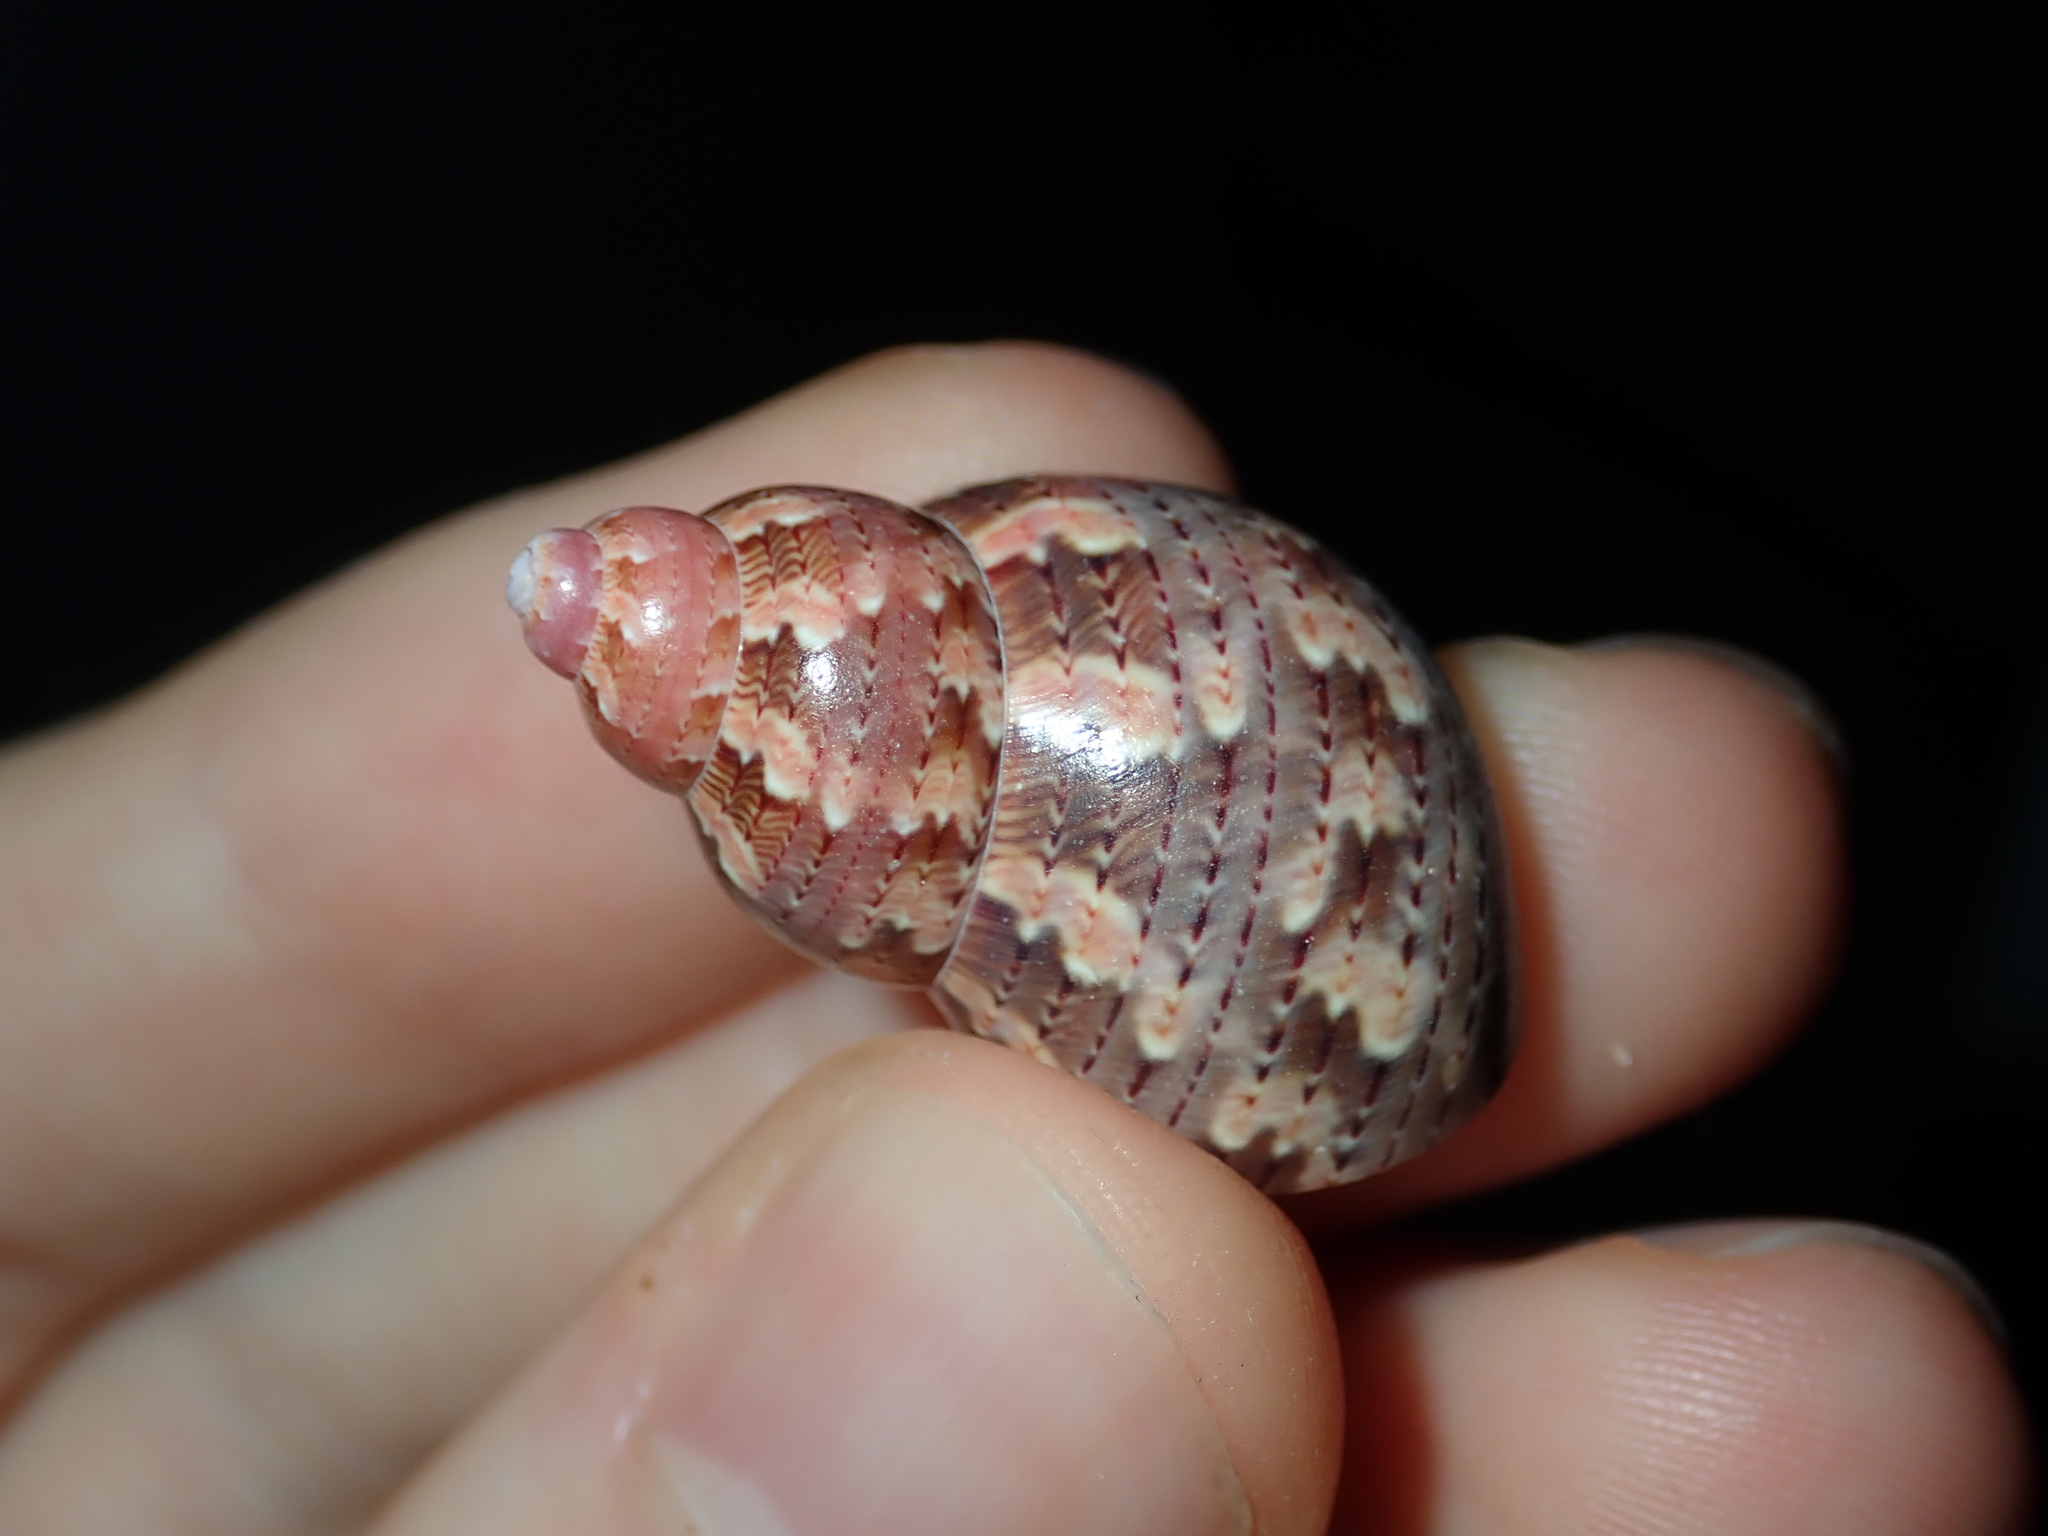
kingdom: Animalia
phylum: Mollusca
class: Gastropoda
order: Trochida
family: Phasianellidae
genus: Phasianella
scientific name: Phasianella ventricosa
